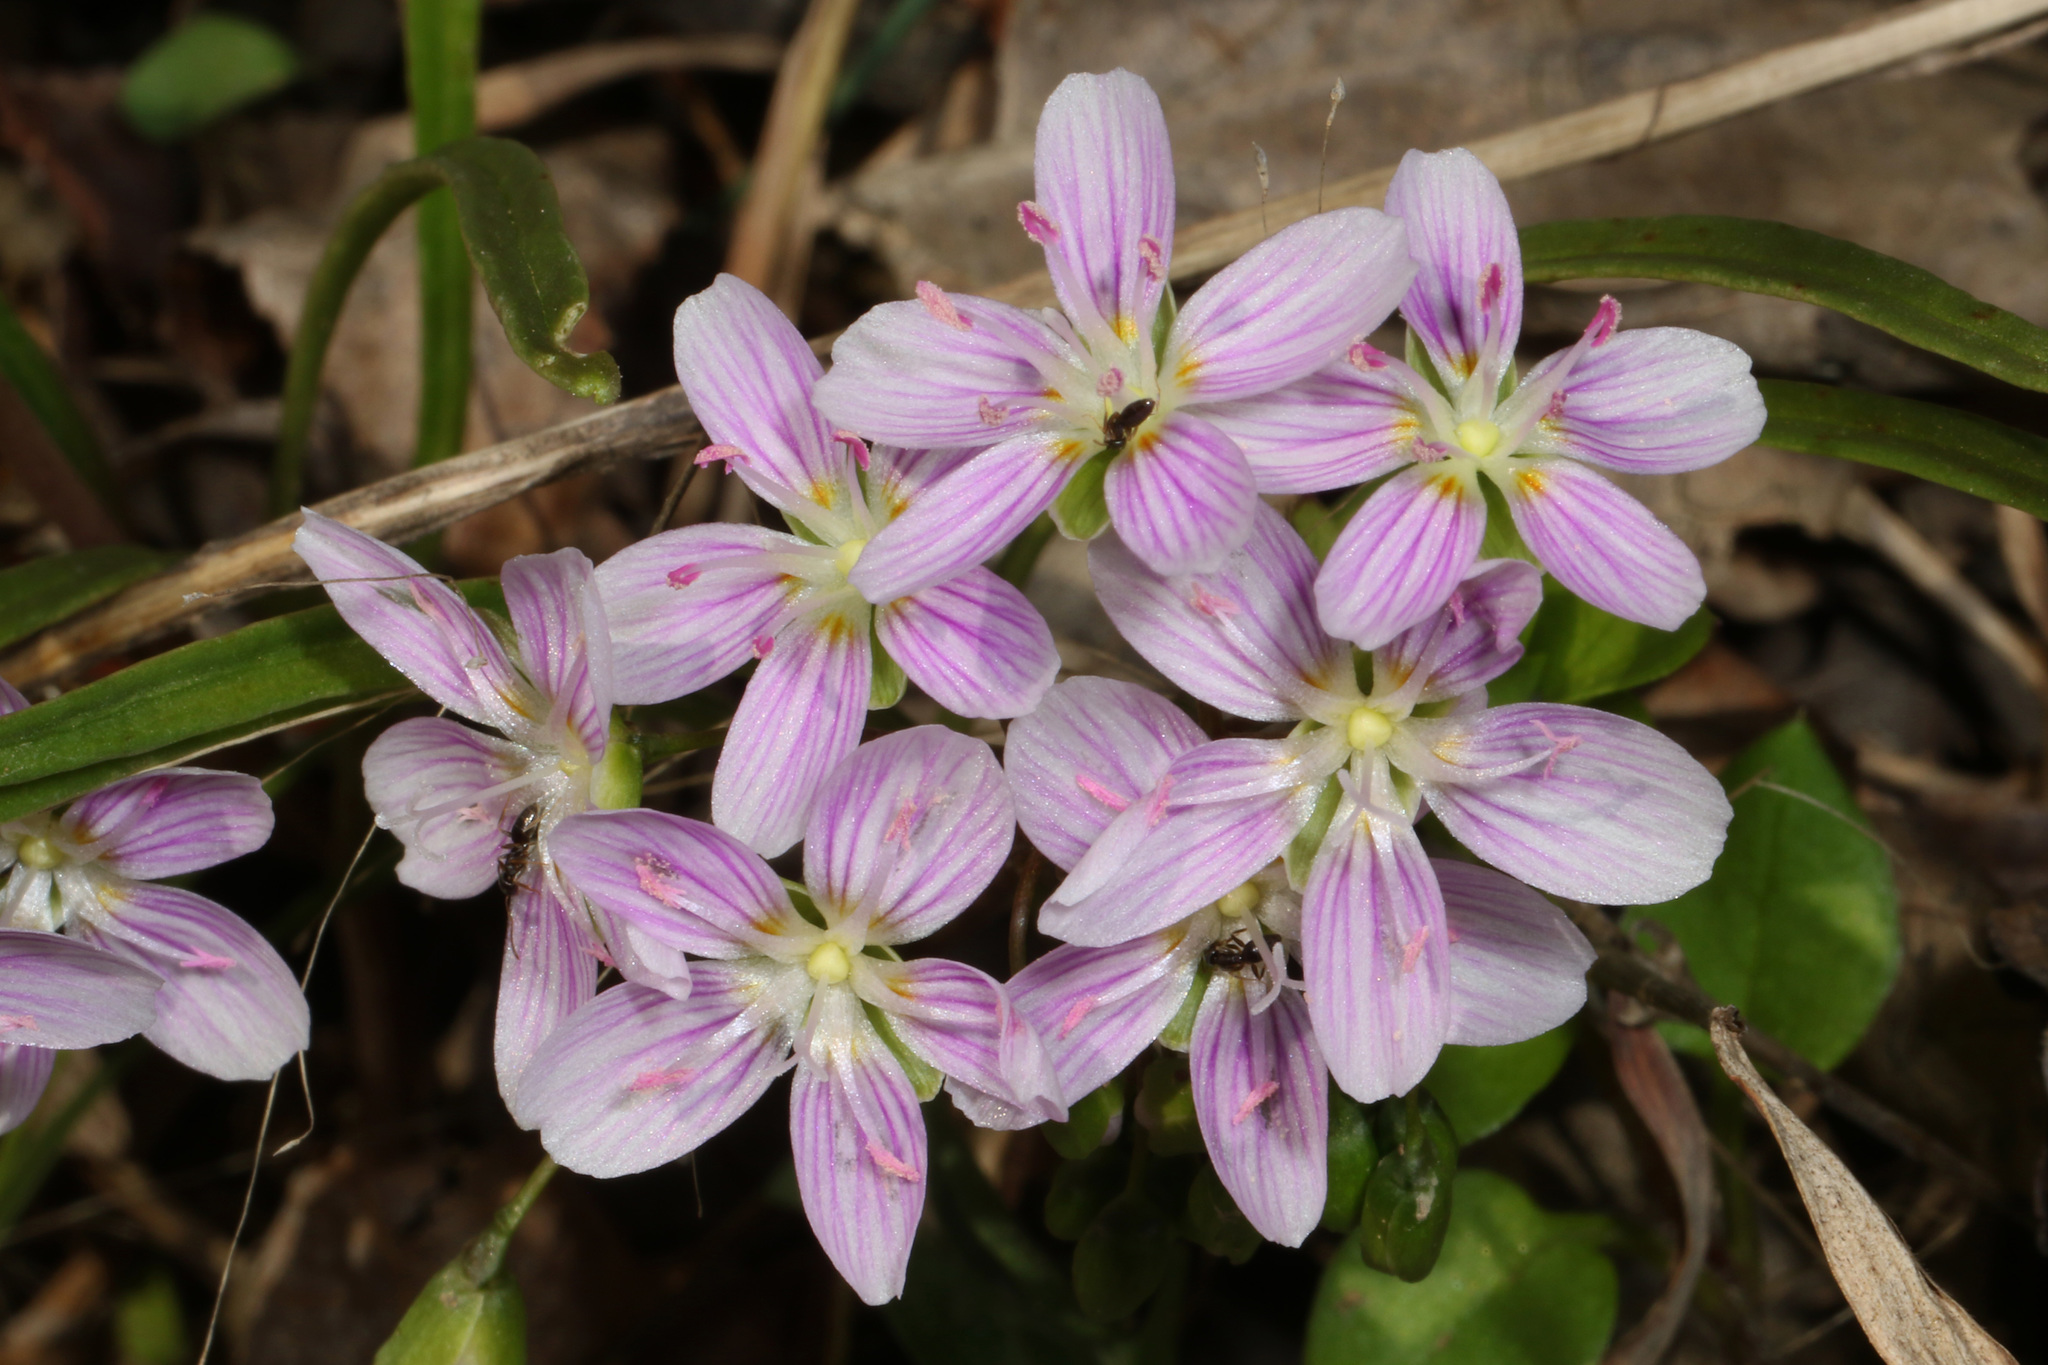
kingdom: Plantae
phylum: Tracheophyta
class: Magnoliopsida
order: Caryophyllales
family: Montiaceae
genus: Claytonia
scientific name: Claytonia virginica
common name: Virginia springbeauty
